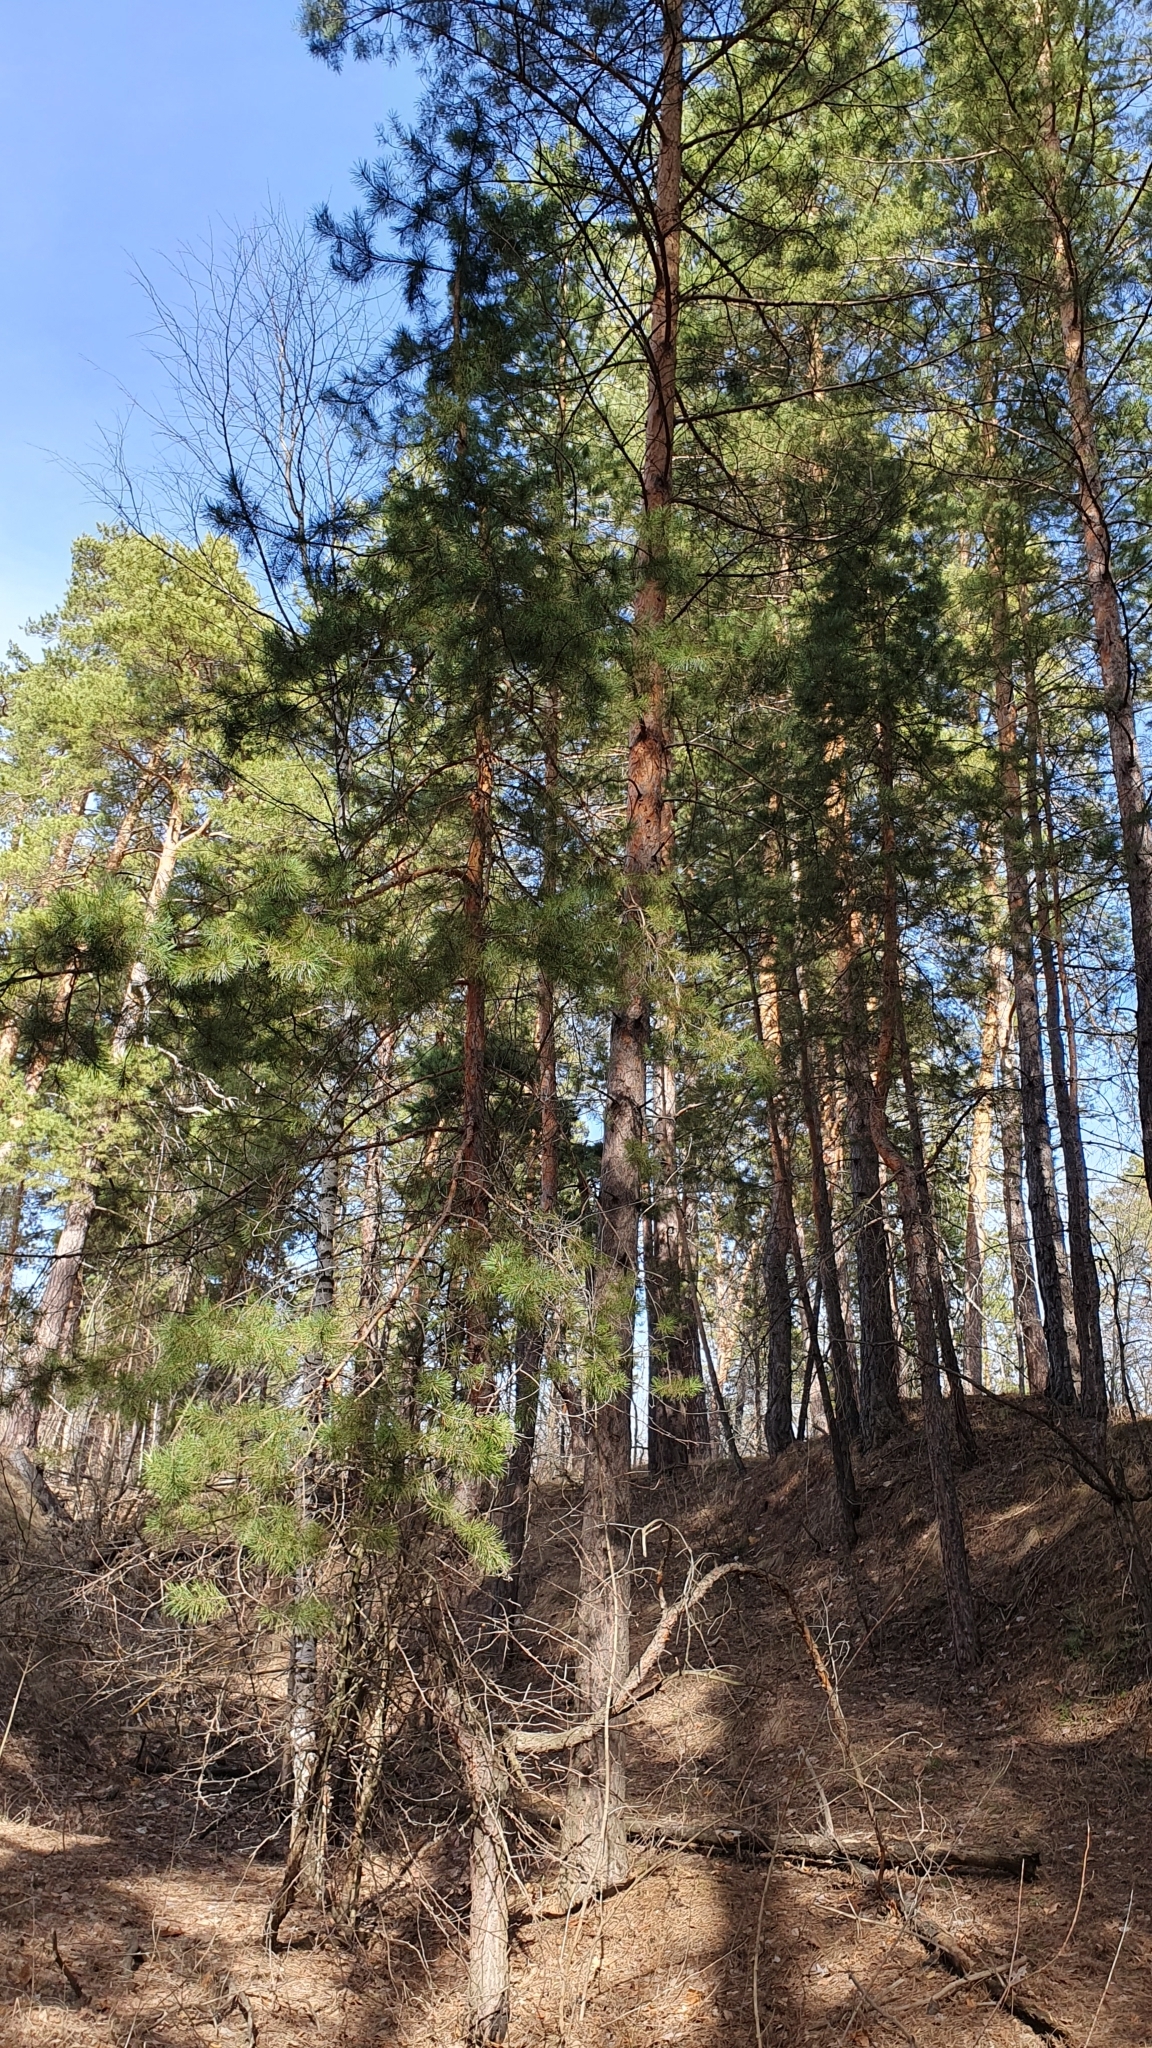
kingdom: Plantae
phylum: Tracheophyta
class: Pinopsida
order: Pinales
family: Pinaceae
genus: Pinus
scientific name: Pinus sylvestris
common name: Scots pine
